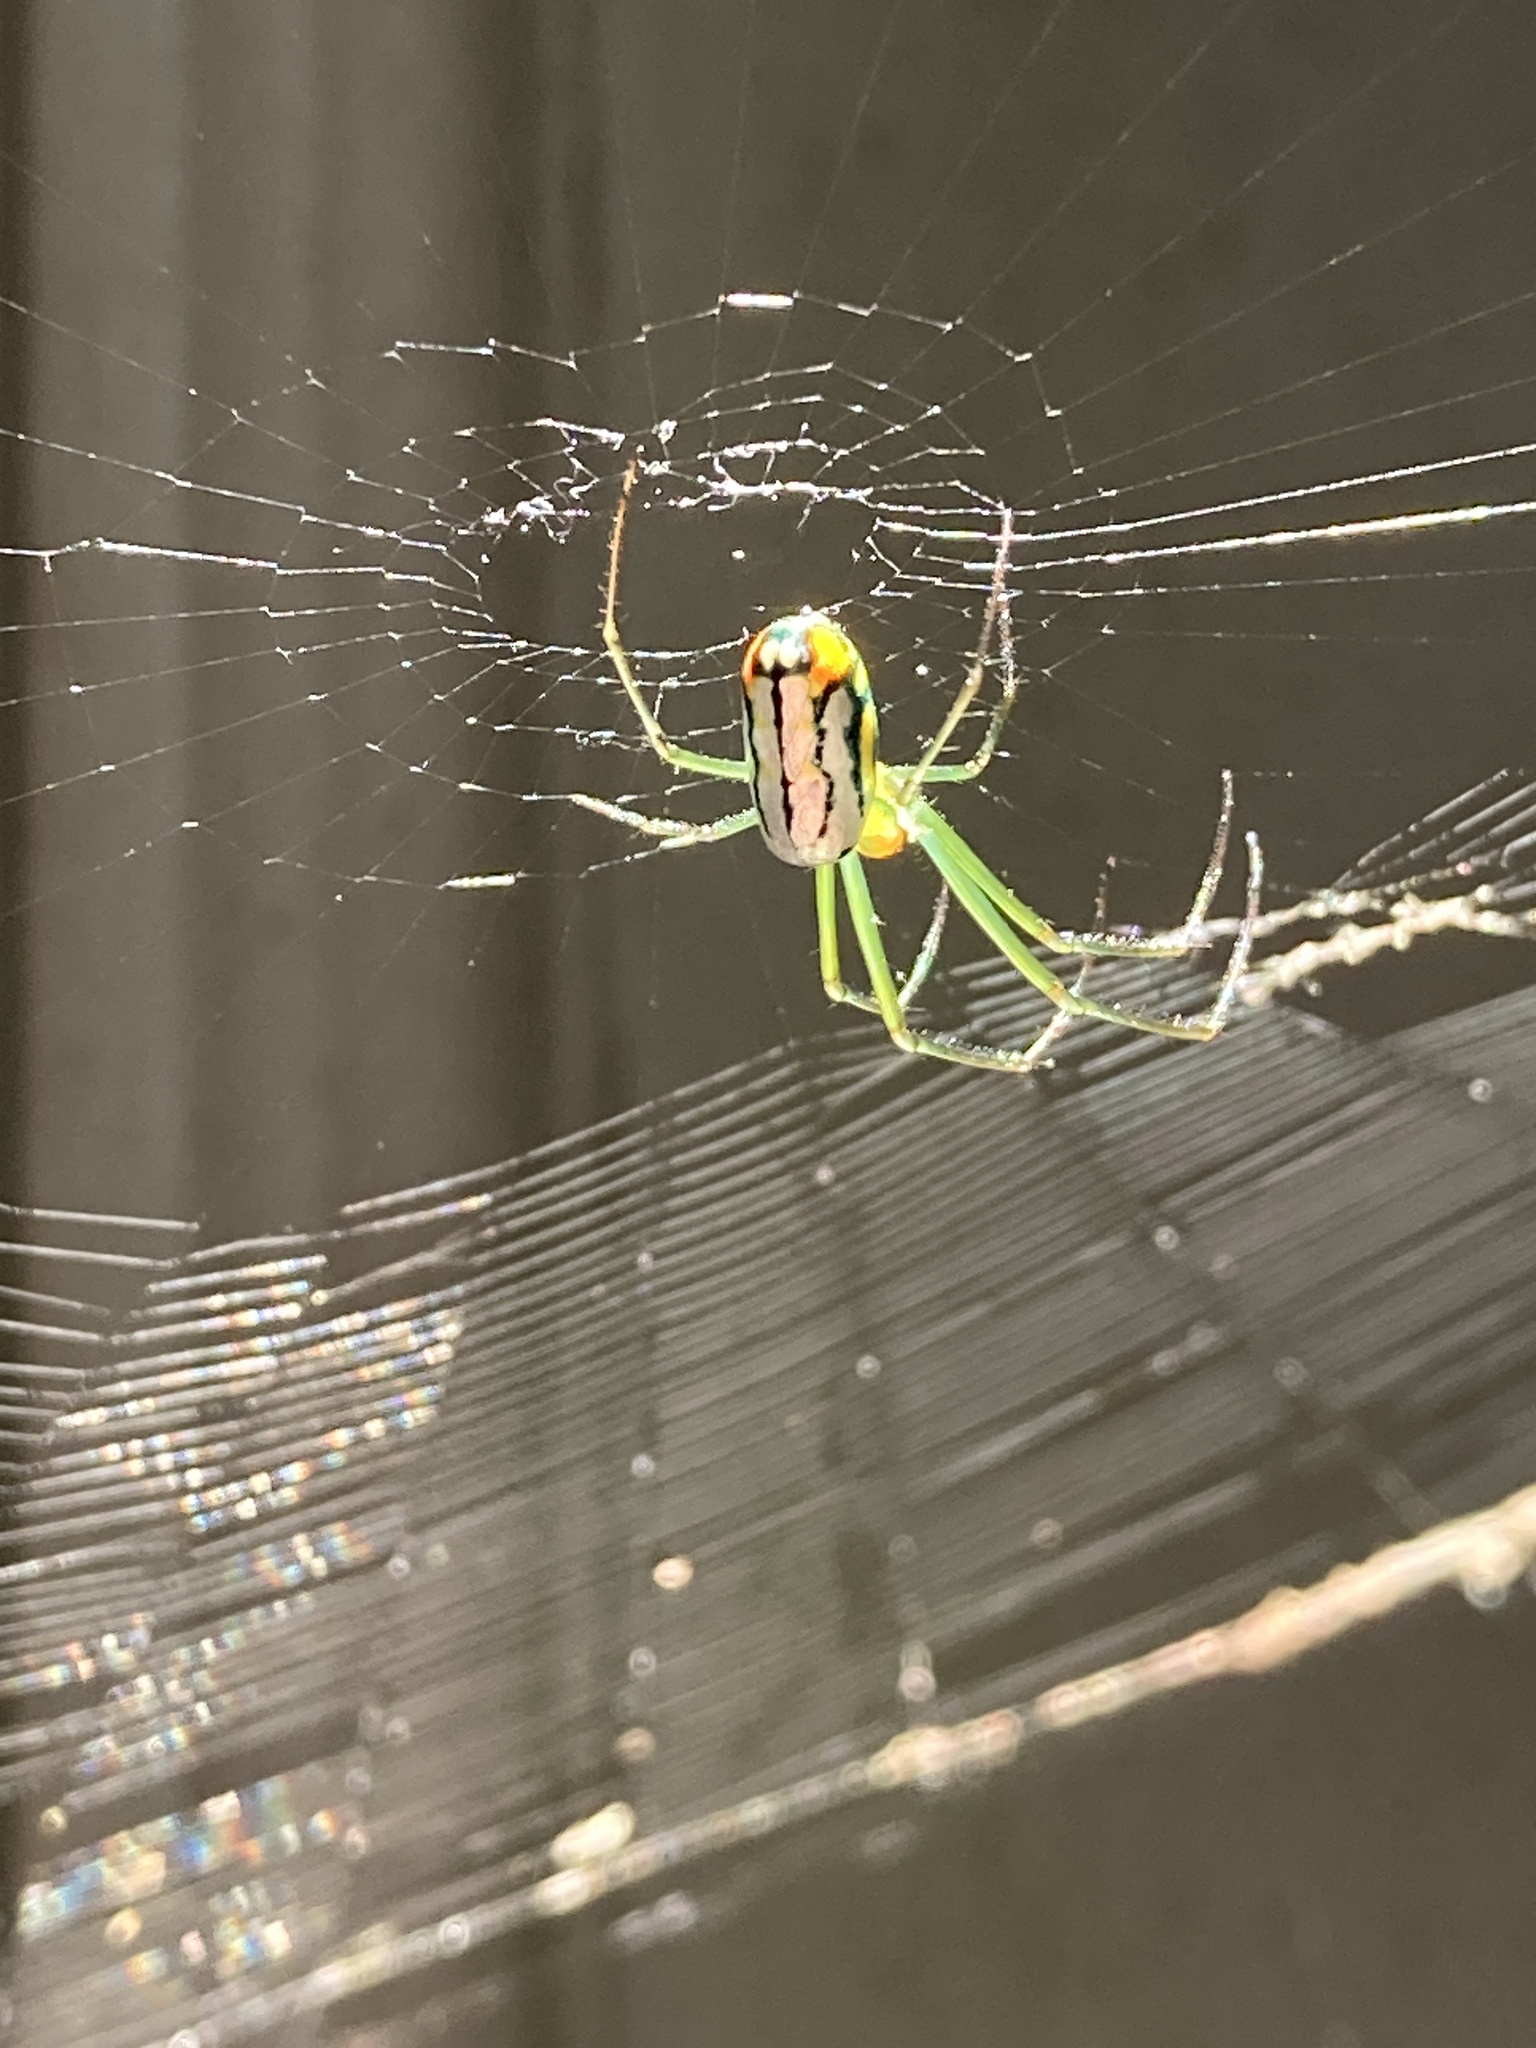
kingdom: Animalia
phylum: Arthropoda
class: Arachnida
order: Araneae
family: Tetragnathidae
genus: Leucauge
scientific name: Leucauge argyrobapta
